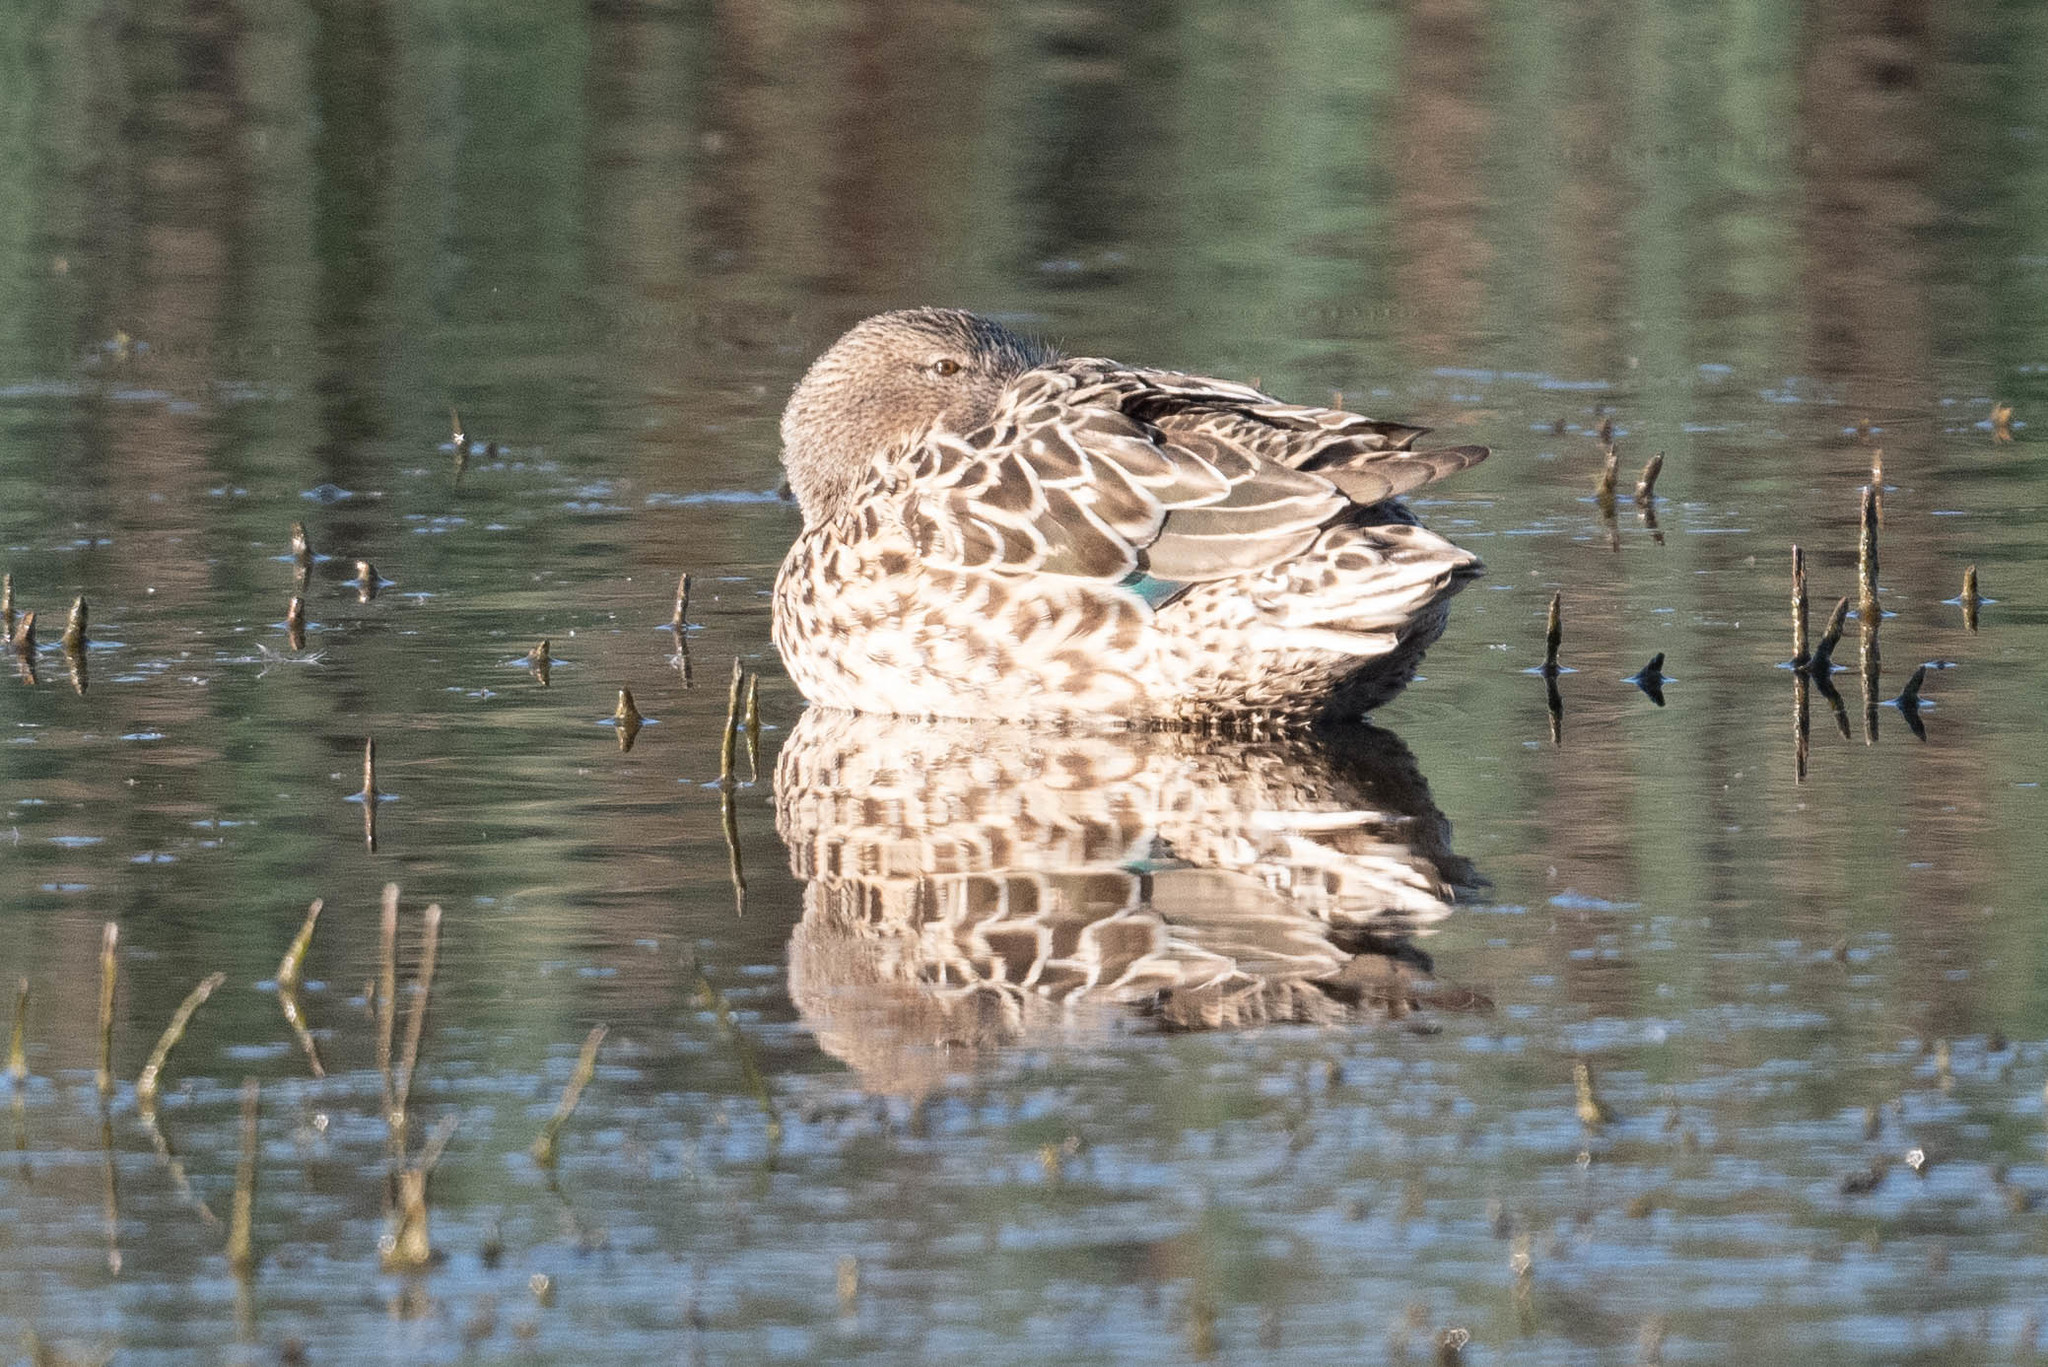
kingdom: Animalia
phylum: Chordata
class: Aves
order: Anseriformes
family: Anatidae
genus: Spatula
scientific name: Spatula clypeata
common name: Northern shoveler
